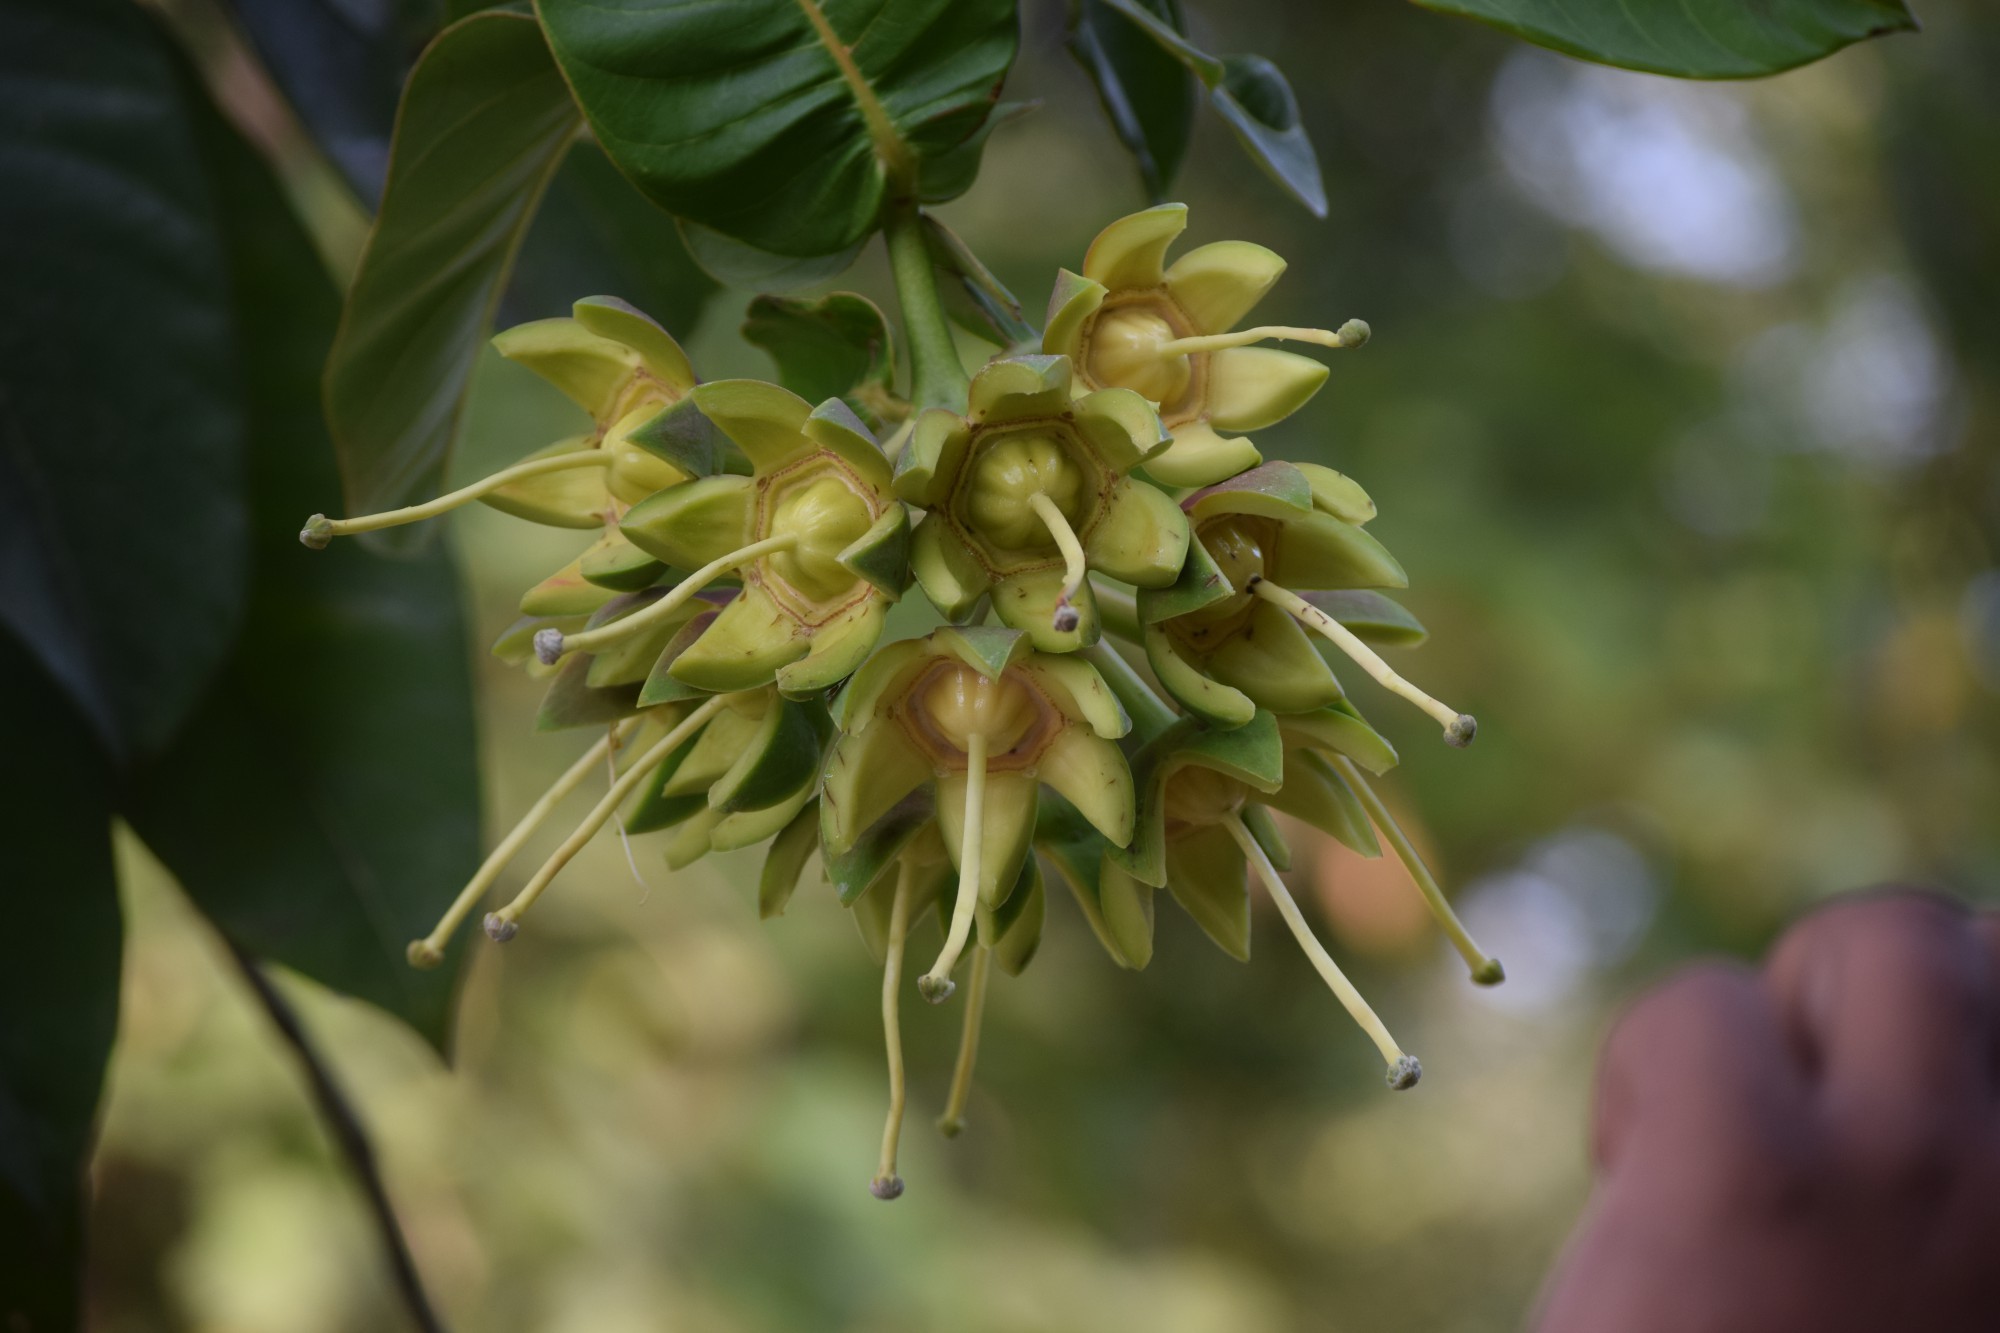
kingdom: Plantae
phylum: Tracheophyta
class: Magnoliopsida
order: Myrtales
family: Lythraceae
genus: Duabanga
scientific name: Duabanga grandiflora
